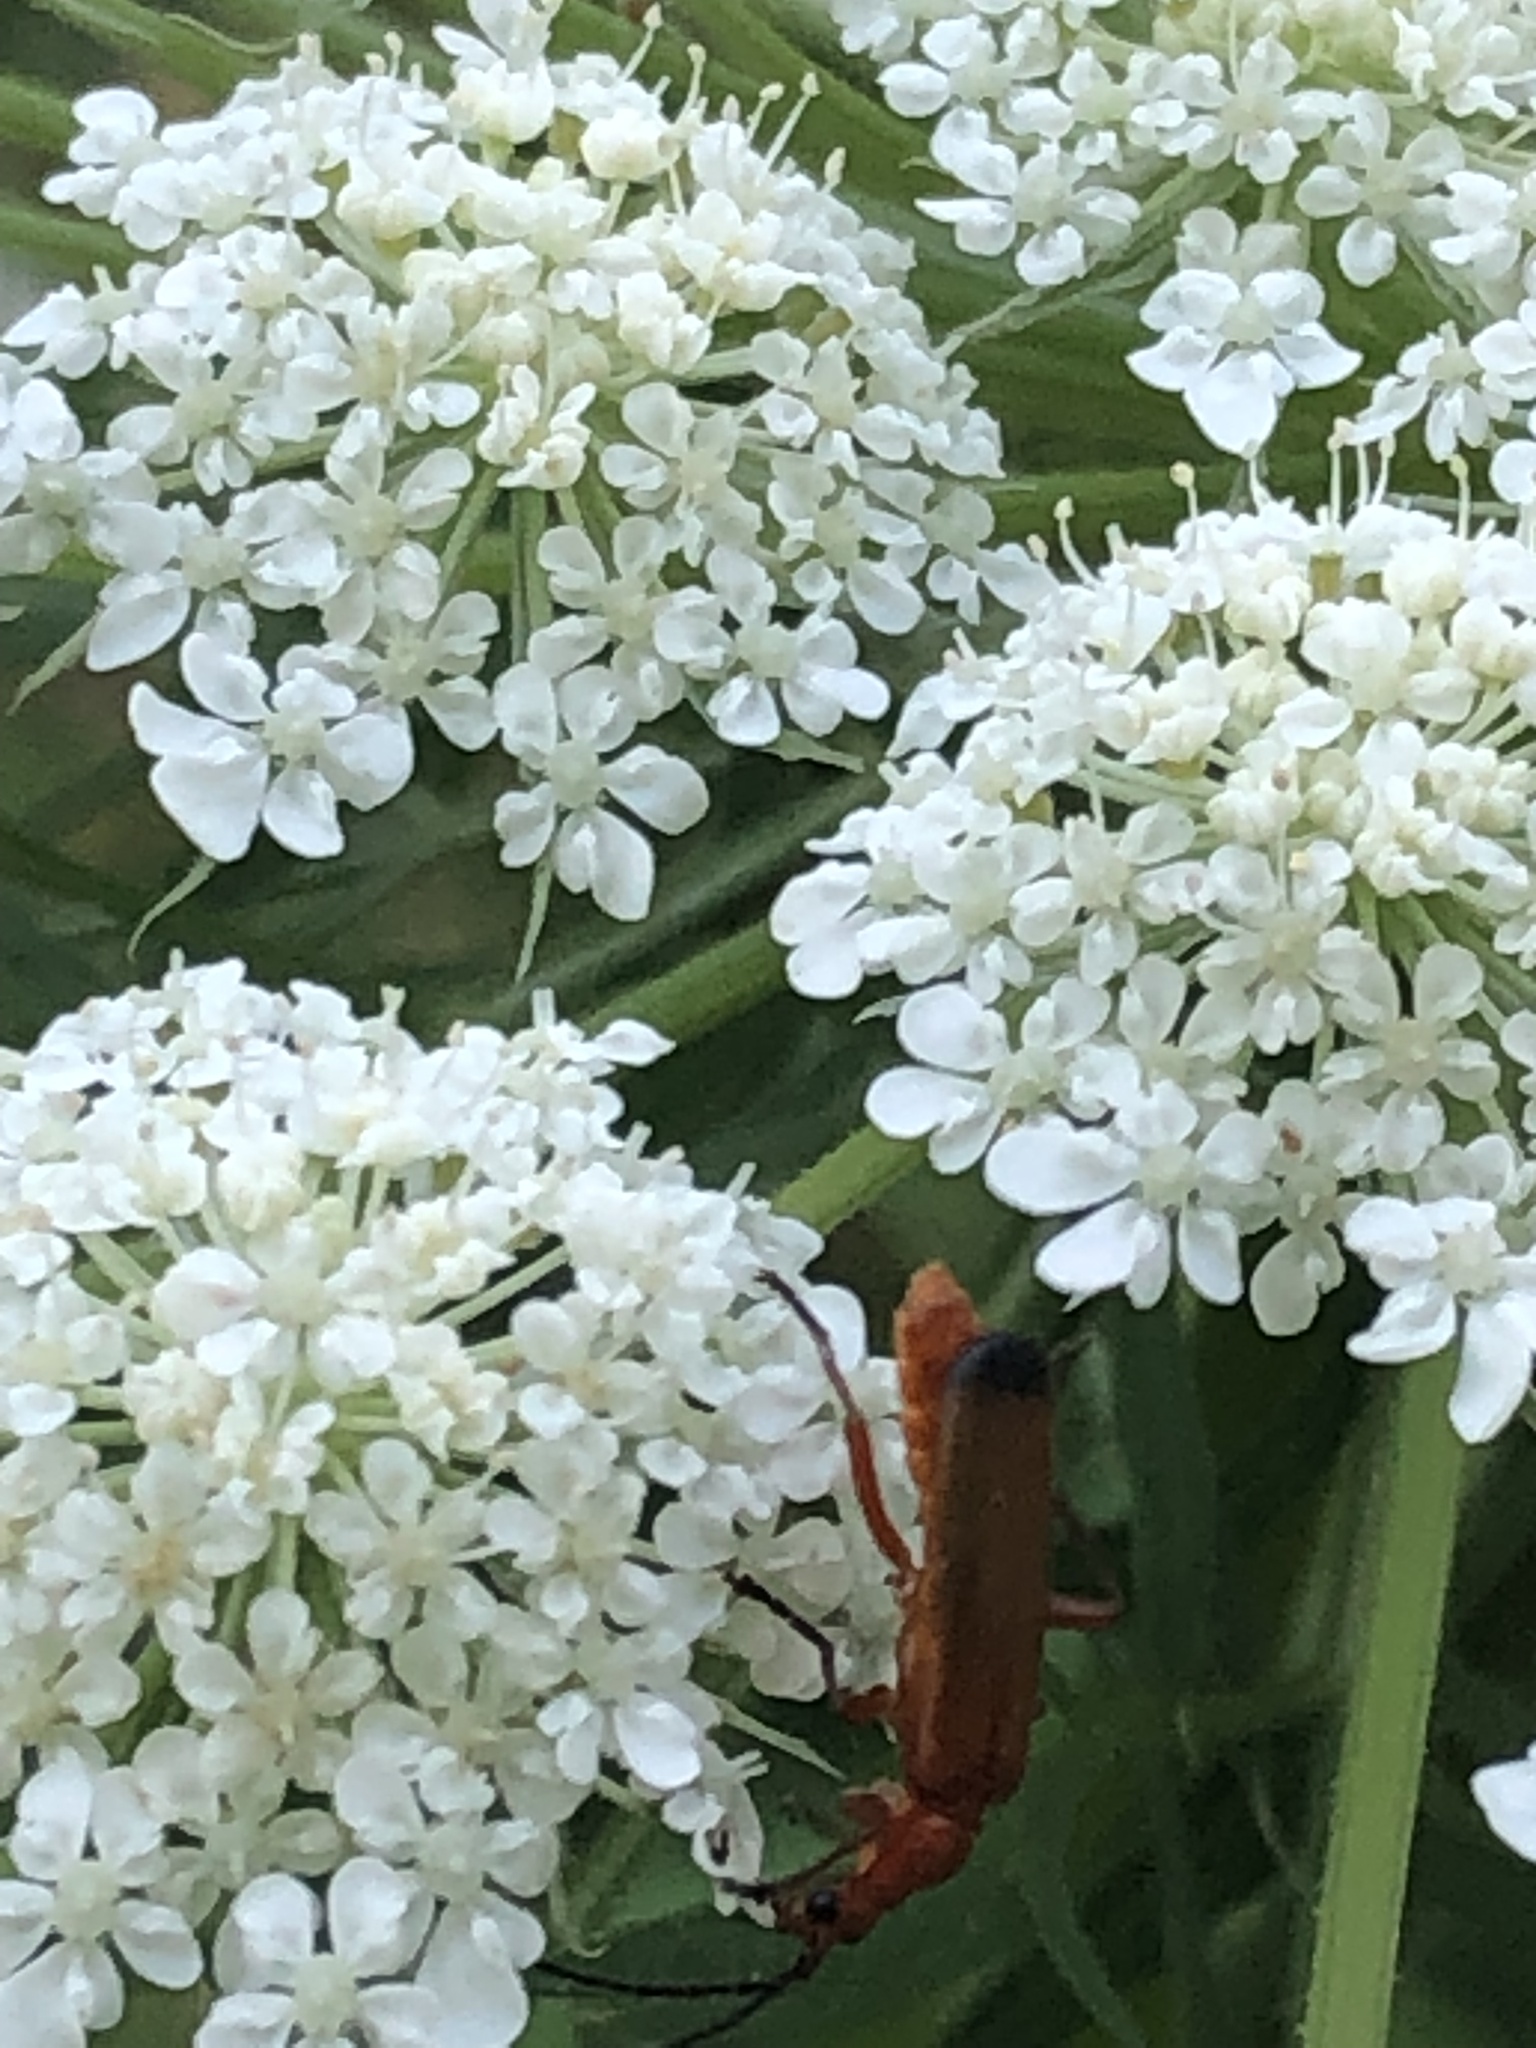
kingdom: Animalia
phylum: Arthropoda
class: Insecta
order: Coleoptera
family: Cantharidae
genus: Rhagonycha
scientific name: Rhagonycha fulva
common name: Common red soldier beetle
